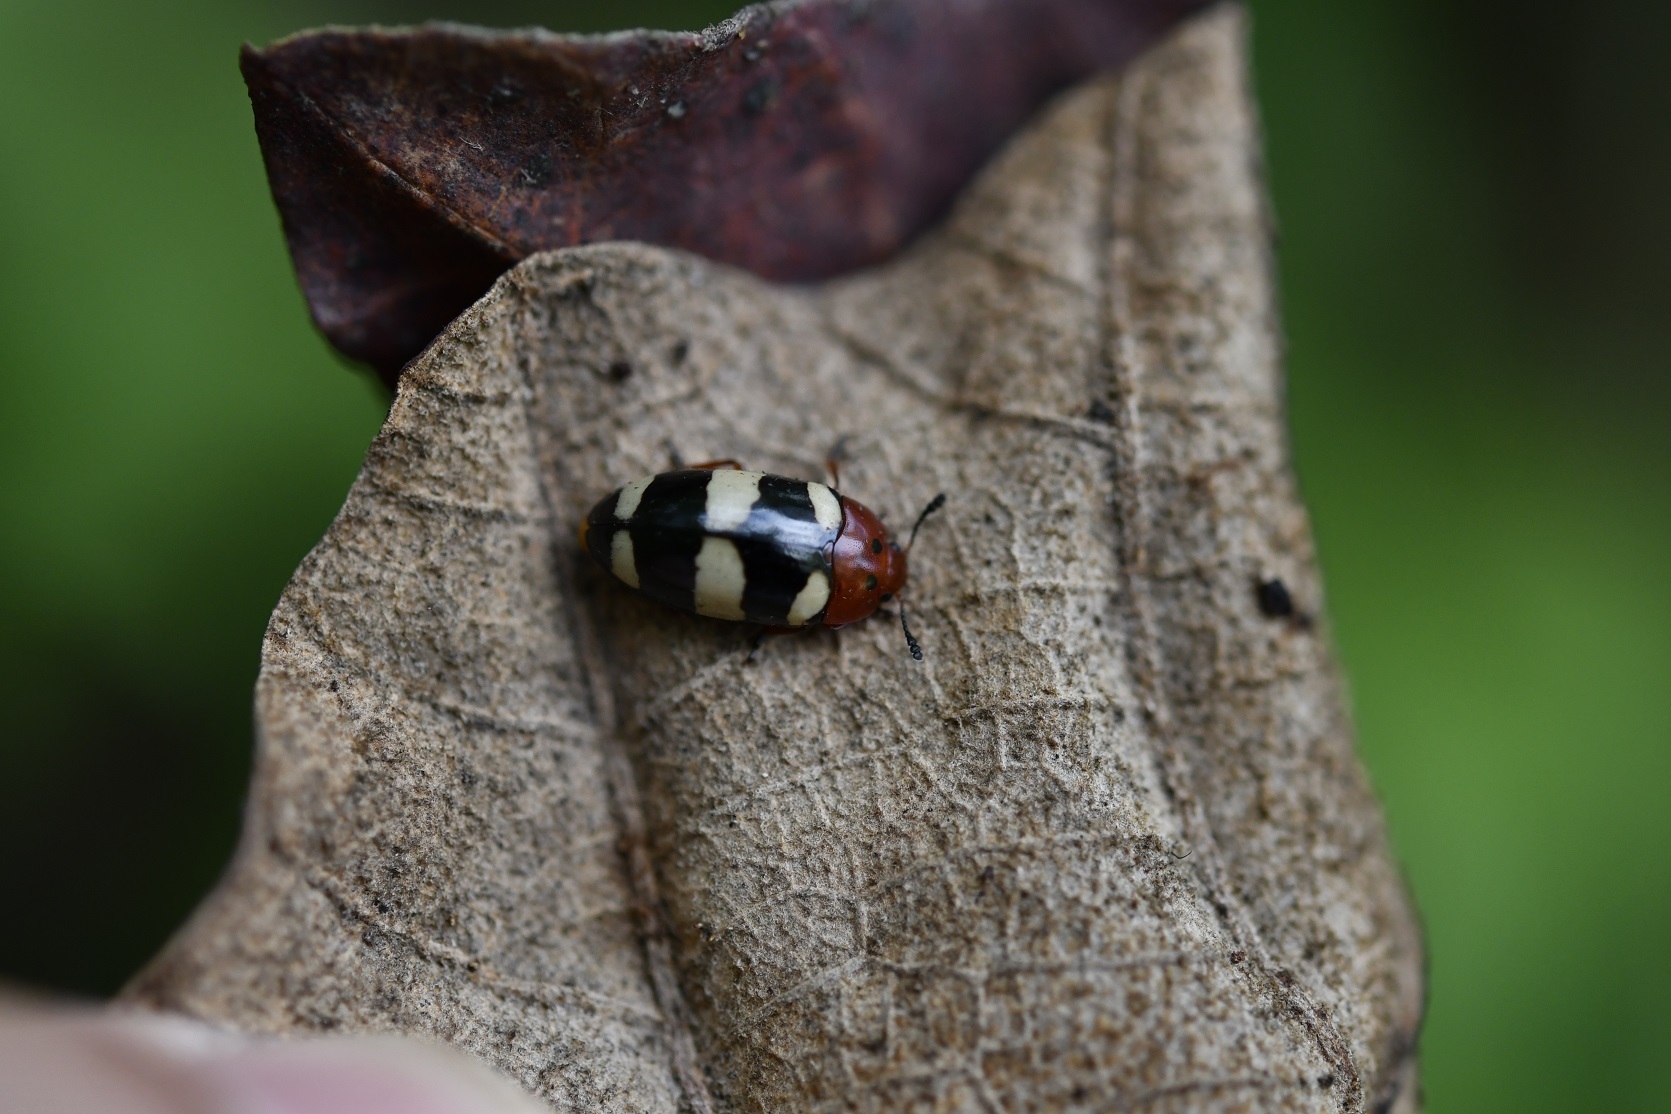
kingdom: Animalia
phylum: Arthropoda
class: Insecta
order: Coleoptera
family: Erotylidae
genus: Callischyrus
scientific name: Callischyrus
